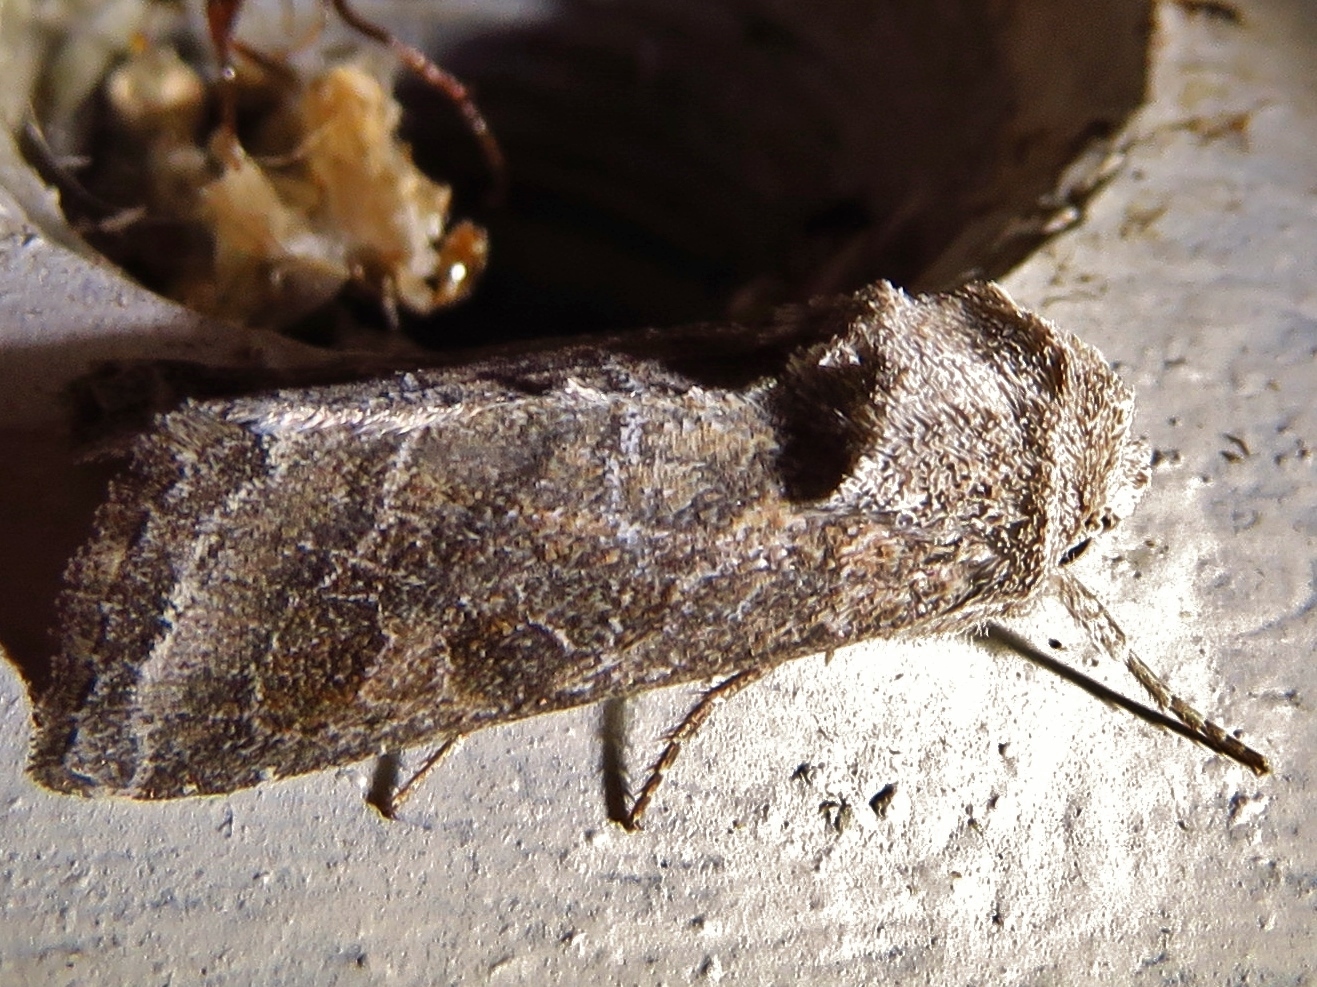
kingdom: Animalia
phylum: Arthropoda
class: Insecta
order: Lepidoptera
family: Noctuidae
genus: Lacinipolia
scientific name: Lacinipolia erecta
